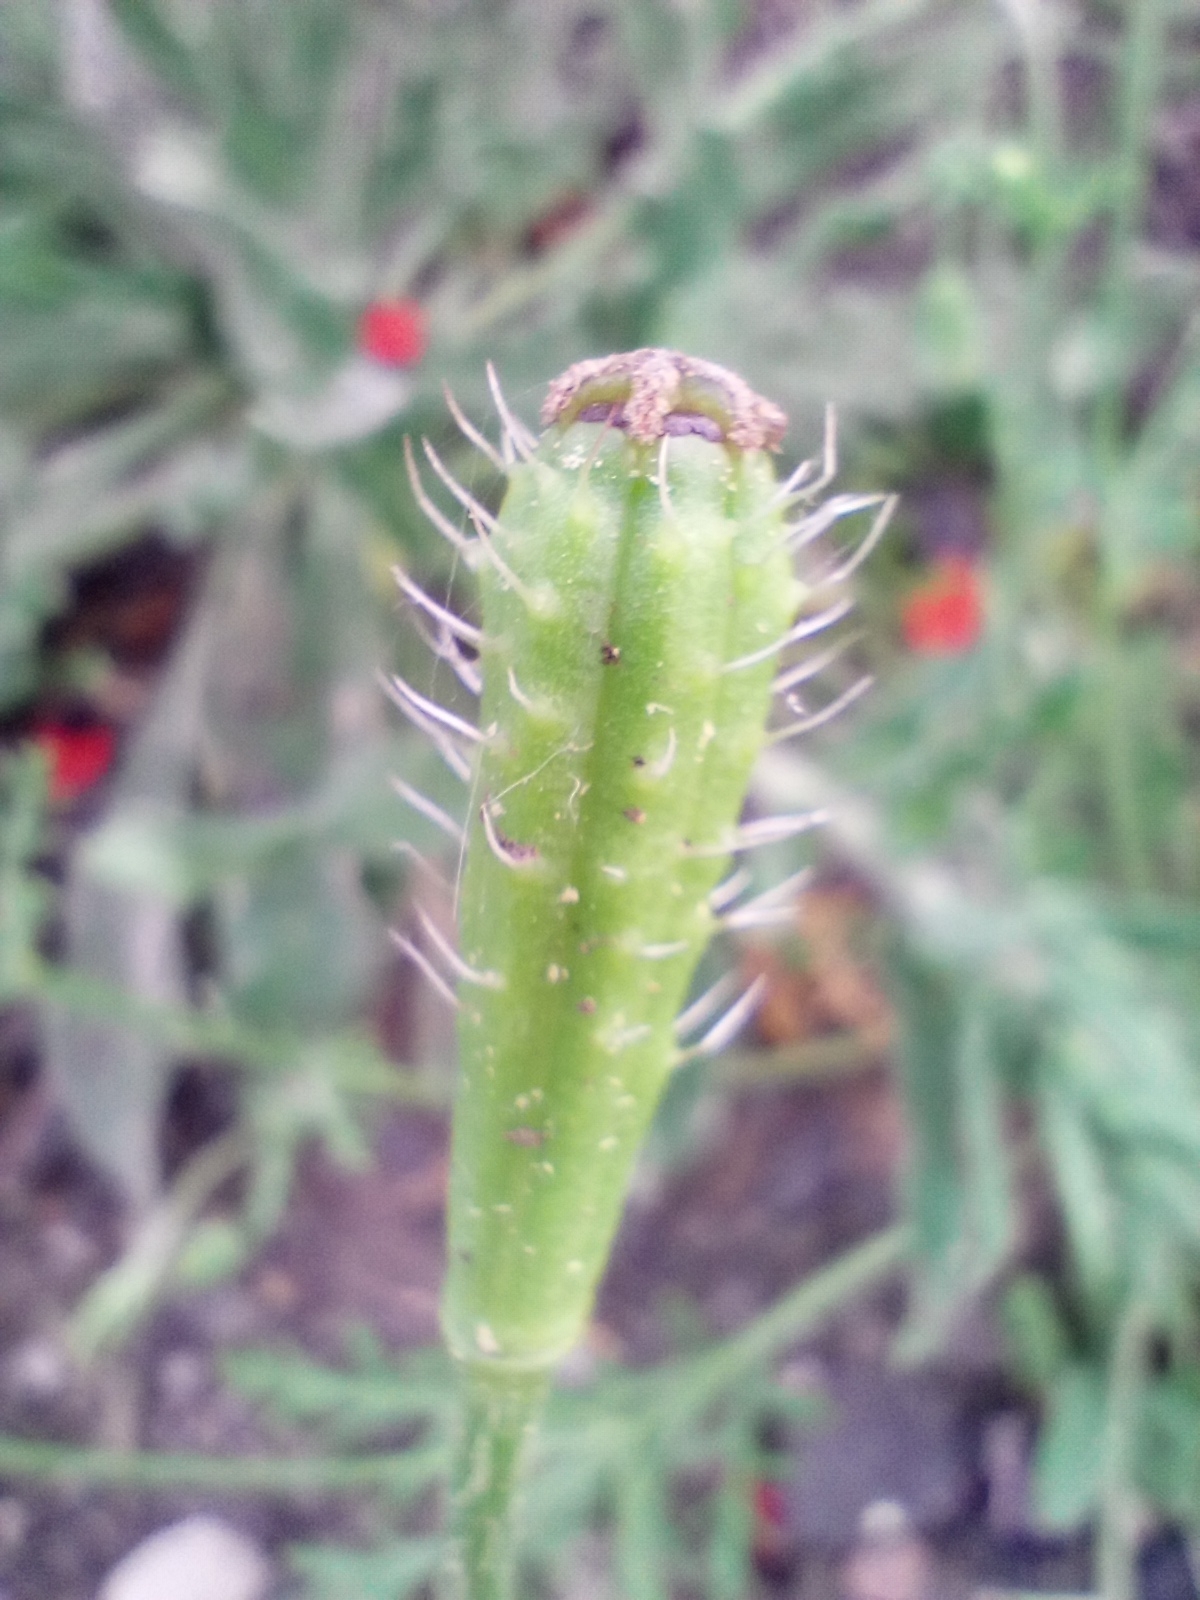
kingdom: Plantae
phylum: Tracheophyta
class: Magnoliopsida
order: Ranunculales
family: Papaveraceae
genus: Roemeria
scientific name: Roemeria argemone
